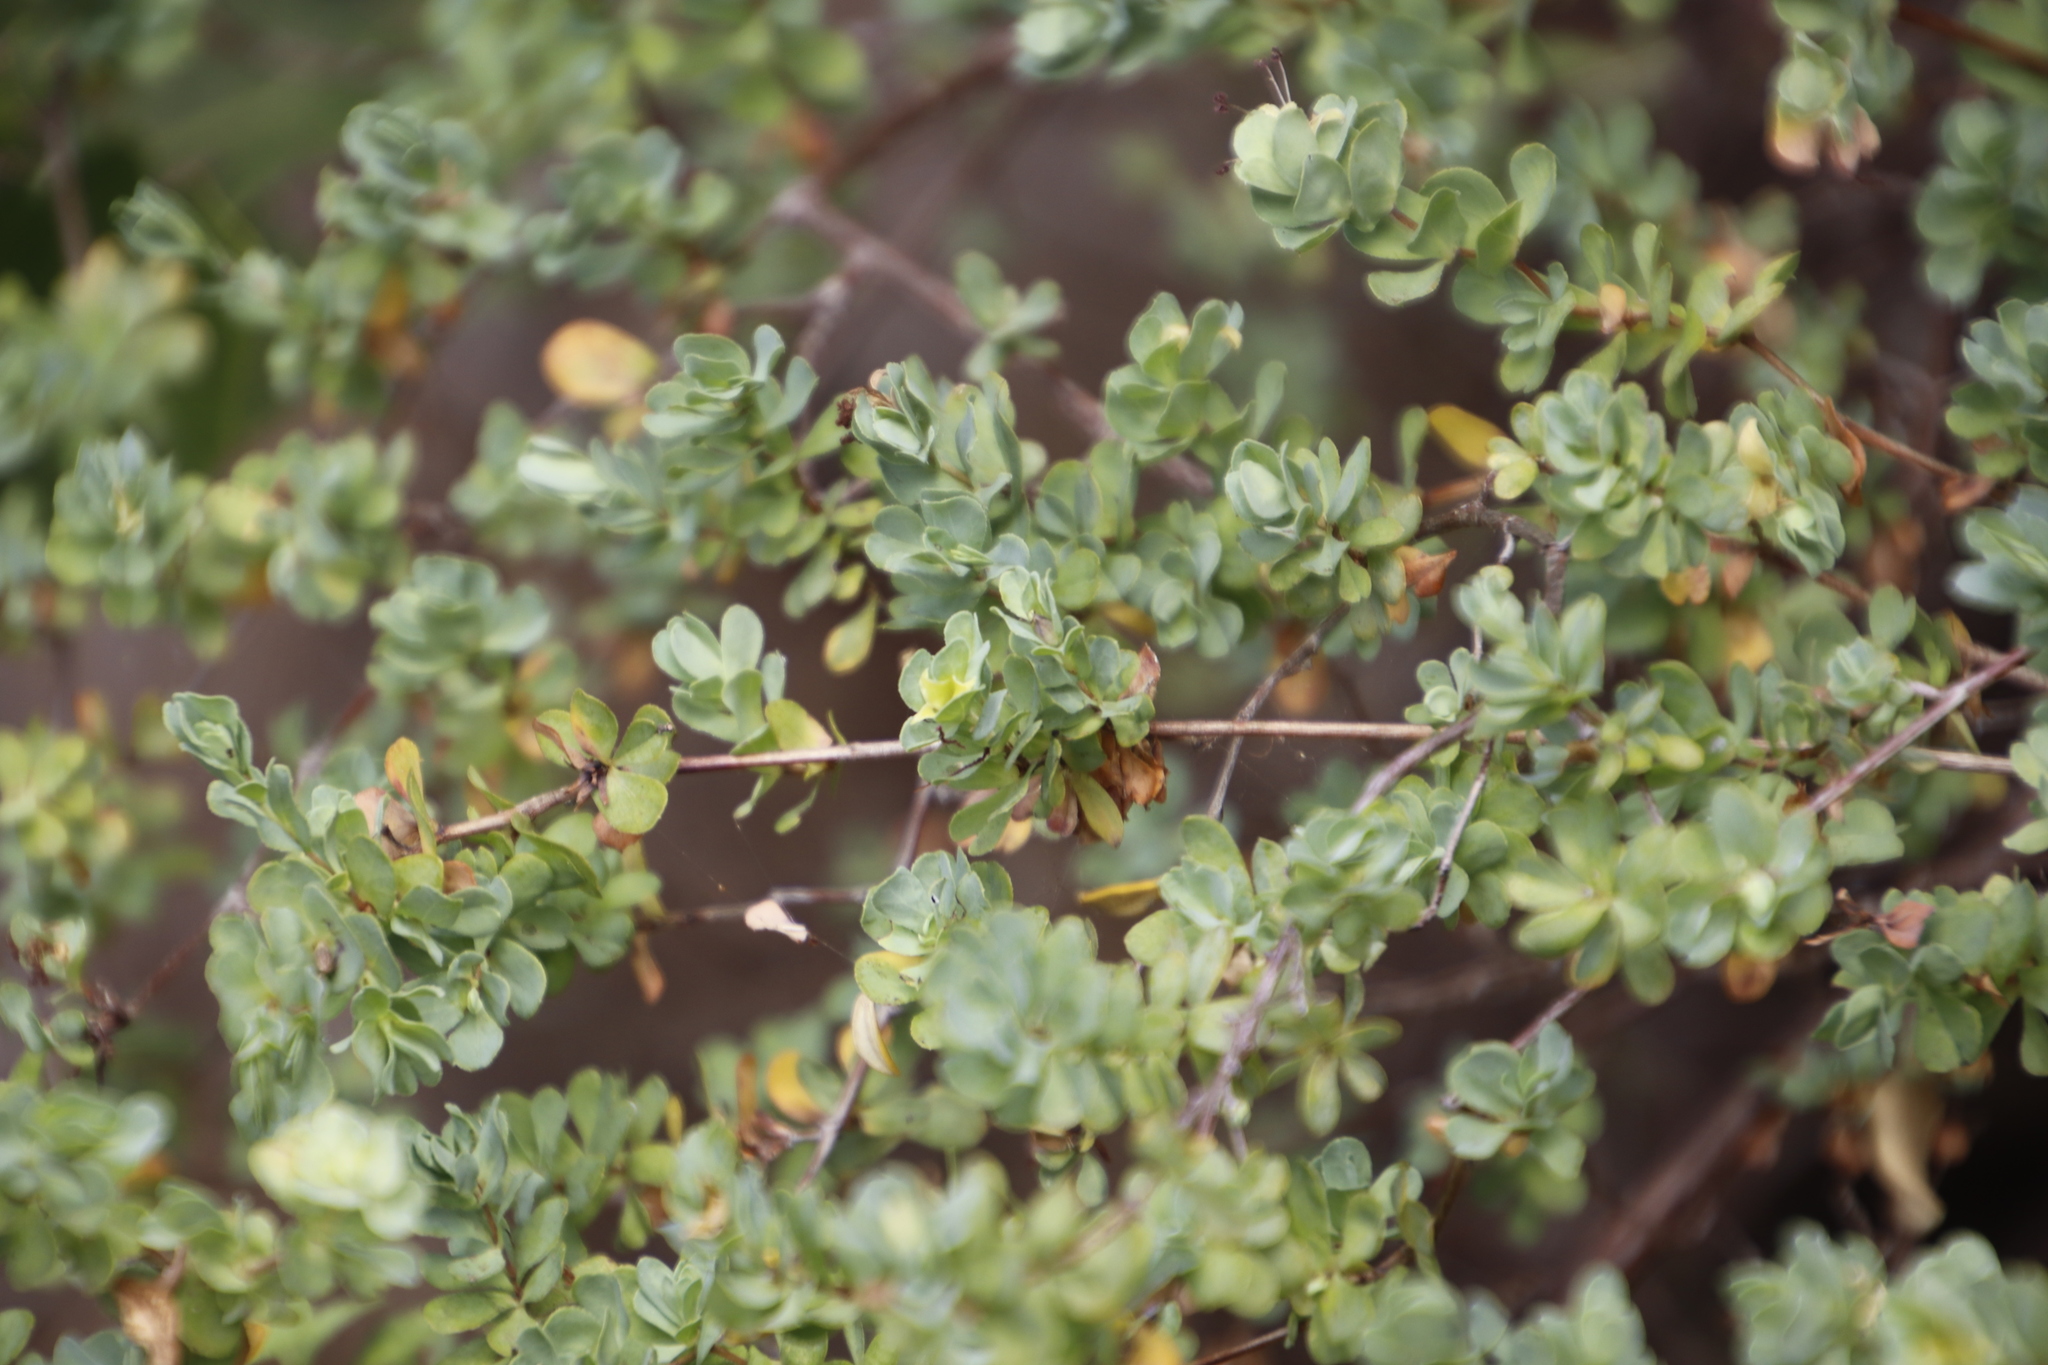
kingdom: Plantae
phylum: Tracheophyta
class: Magnoliopsida
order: Rosales
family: Rosaceae
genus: Cliffortia
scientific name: Cliffortia obcordata
